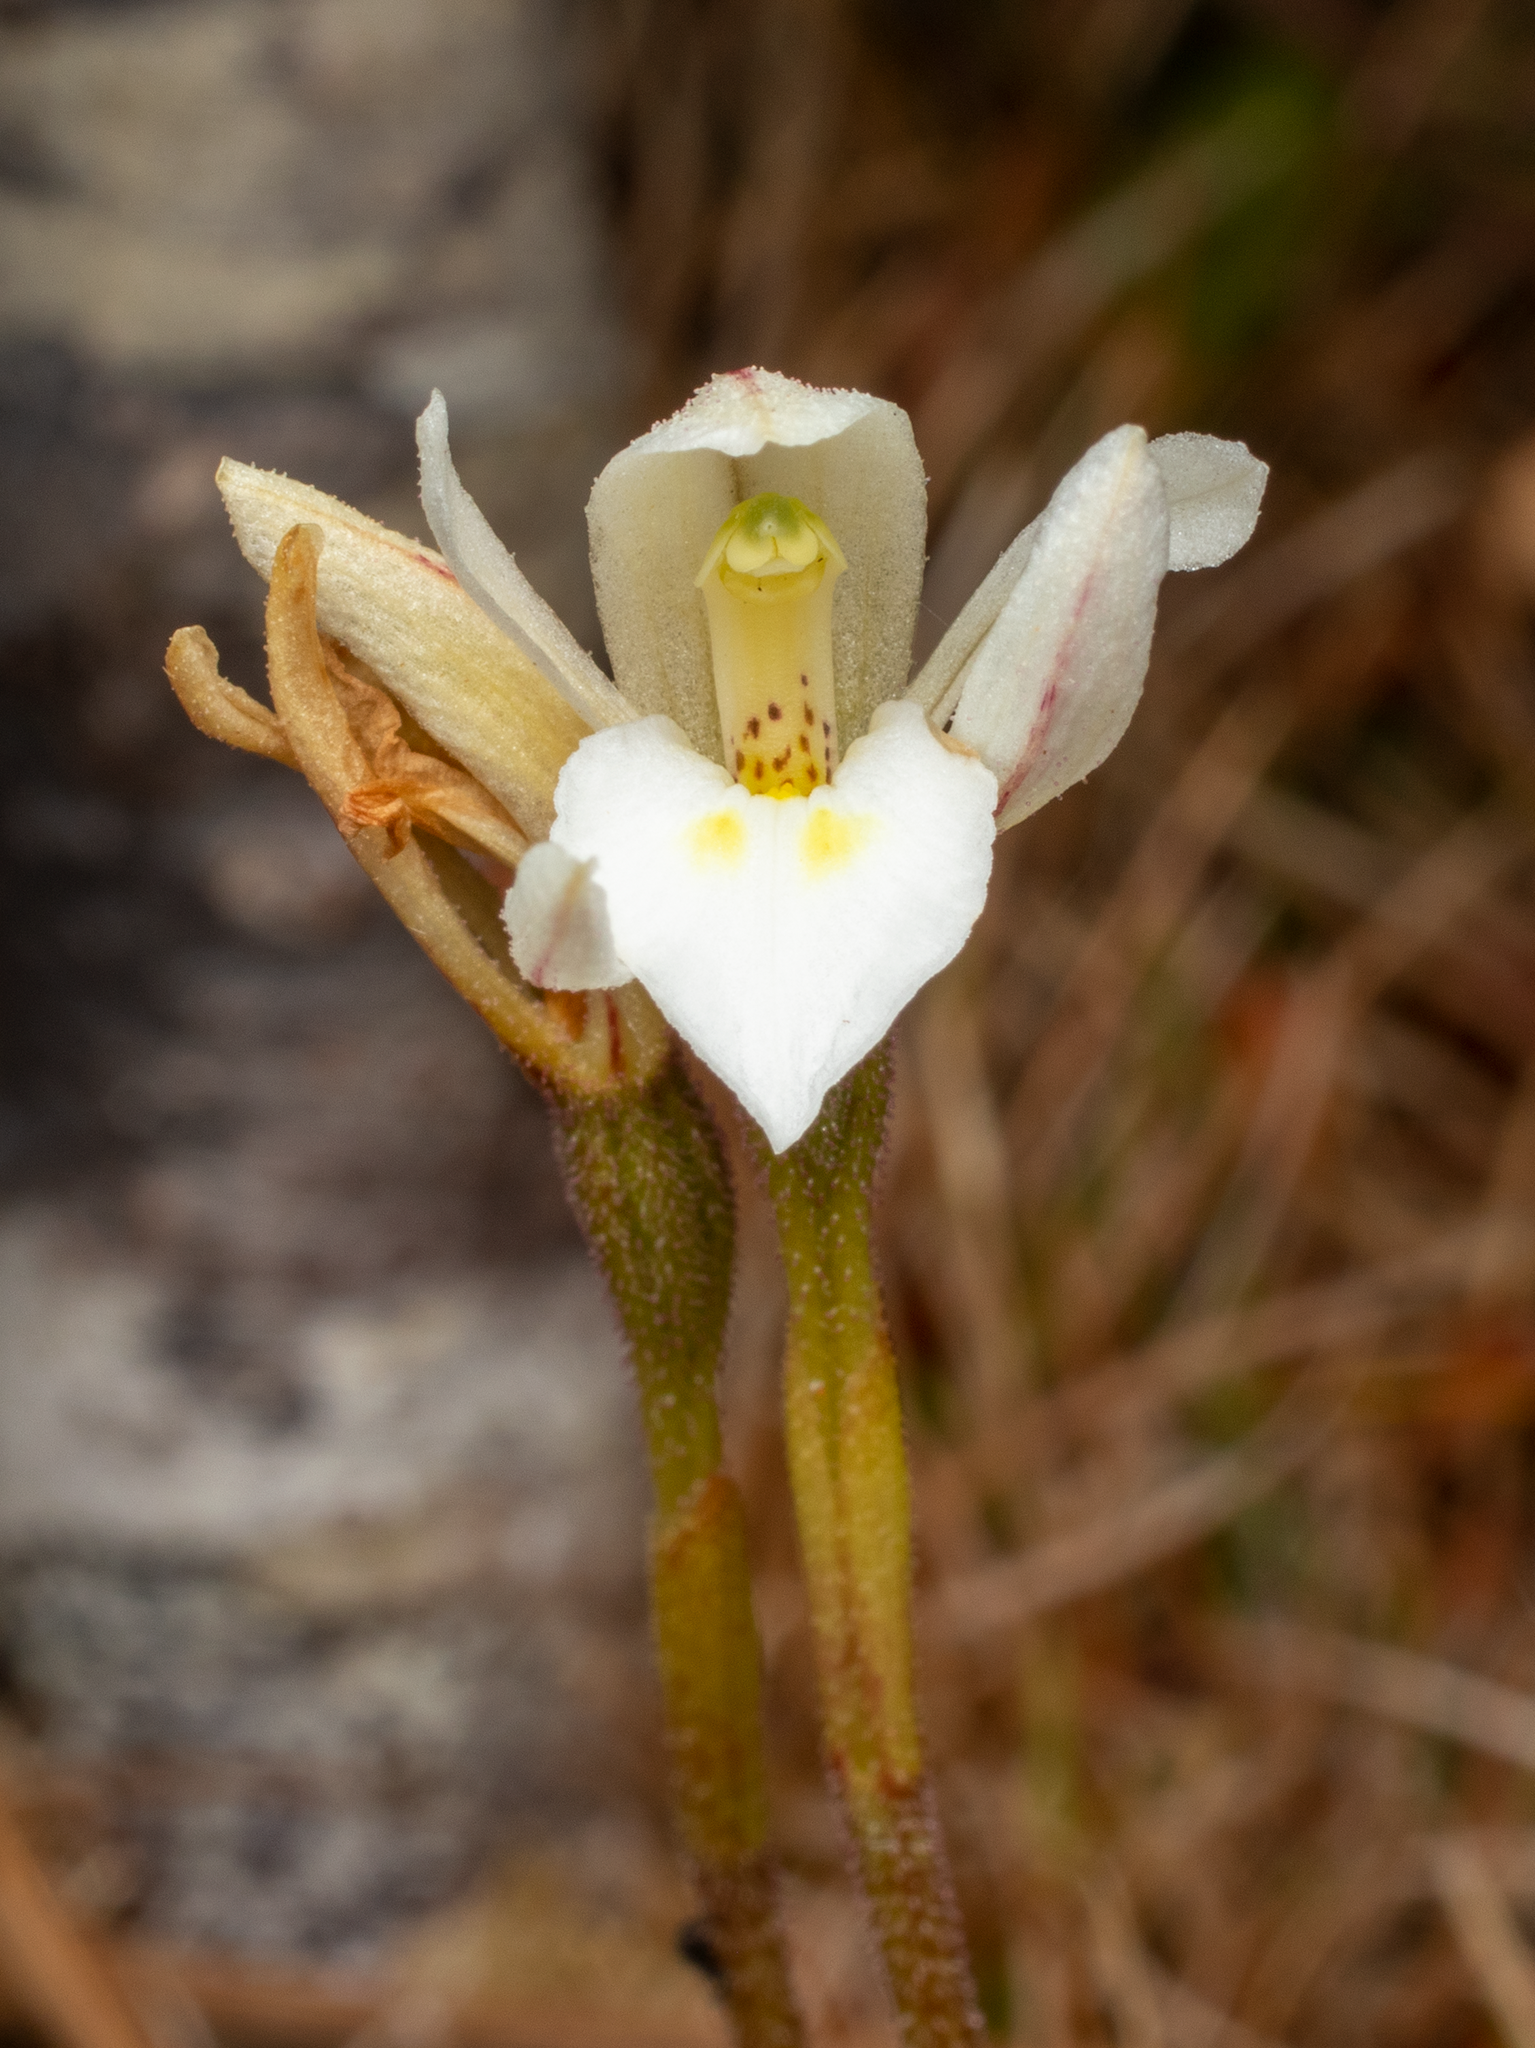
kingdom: Plantae
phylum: Tracheophyta
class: Liliopsida
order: Asparagales
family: Orchidaceae
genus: Aporostylis
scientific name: Aporostylis bifolia
